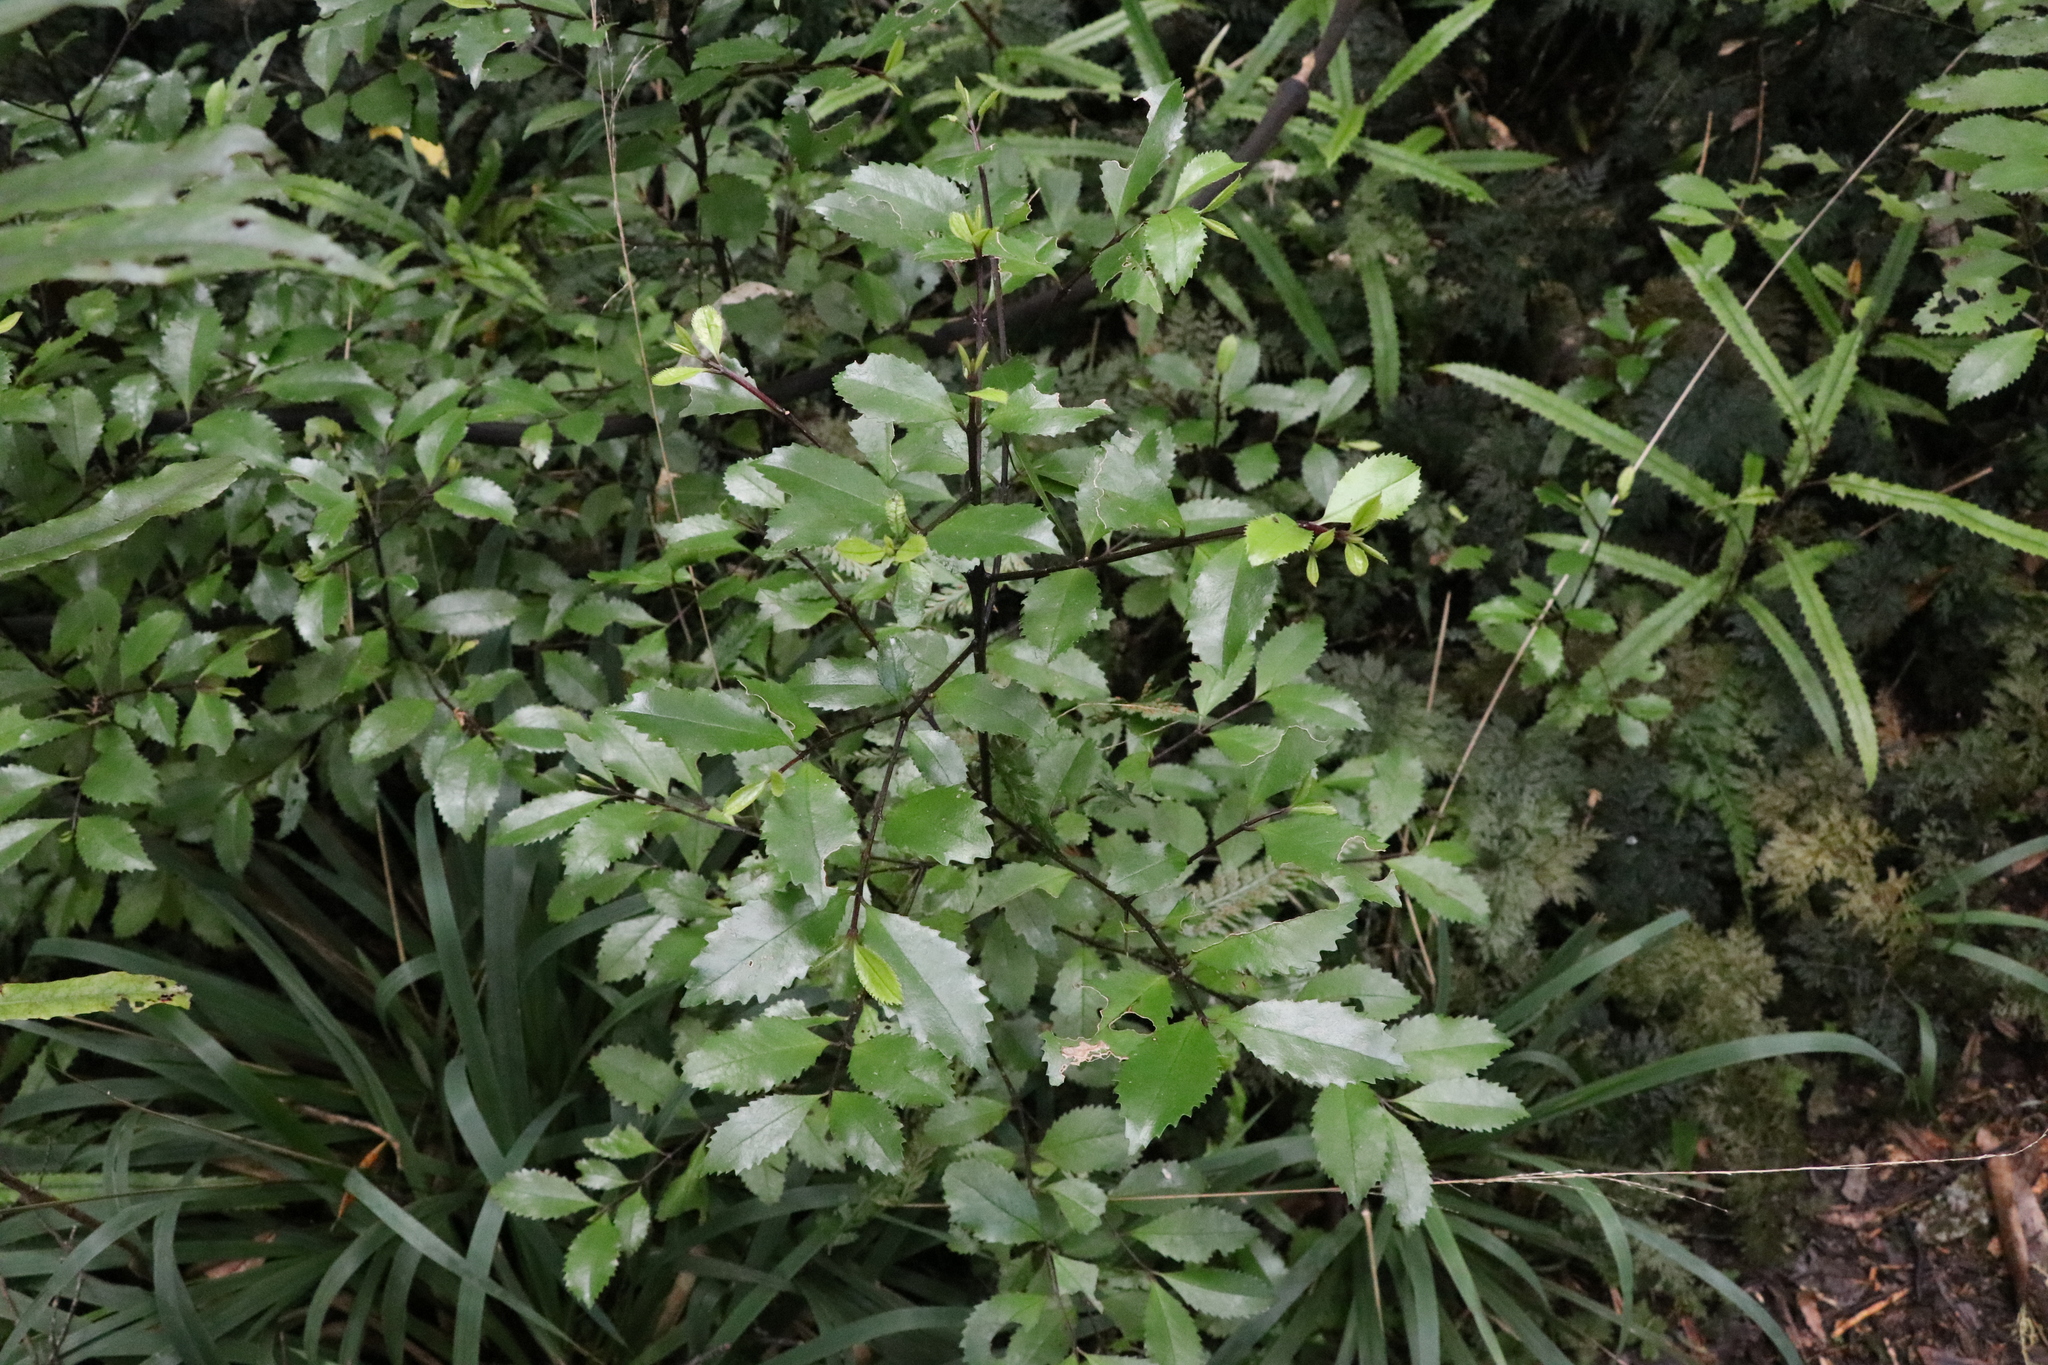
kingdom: Plantae
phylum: Tracheophyta
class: Magnoliopsida
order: Laurales
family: Atherospermataceae
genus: Laurelia
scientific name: Laurelia novae-zelandiae
